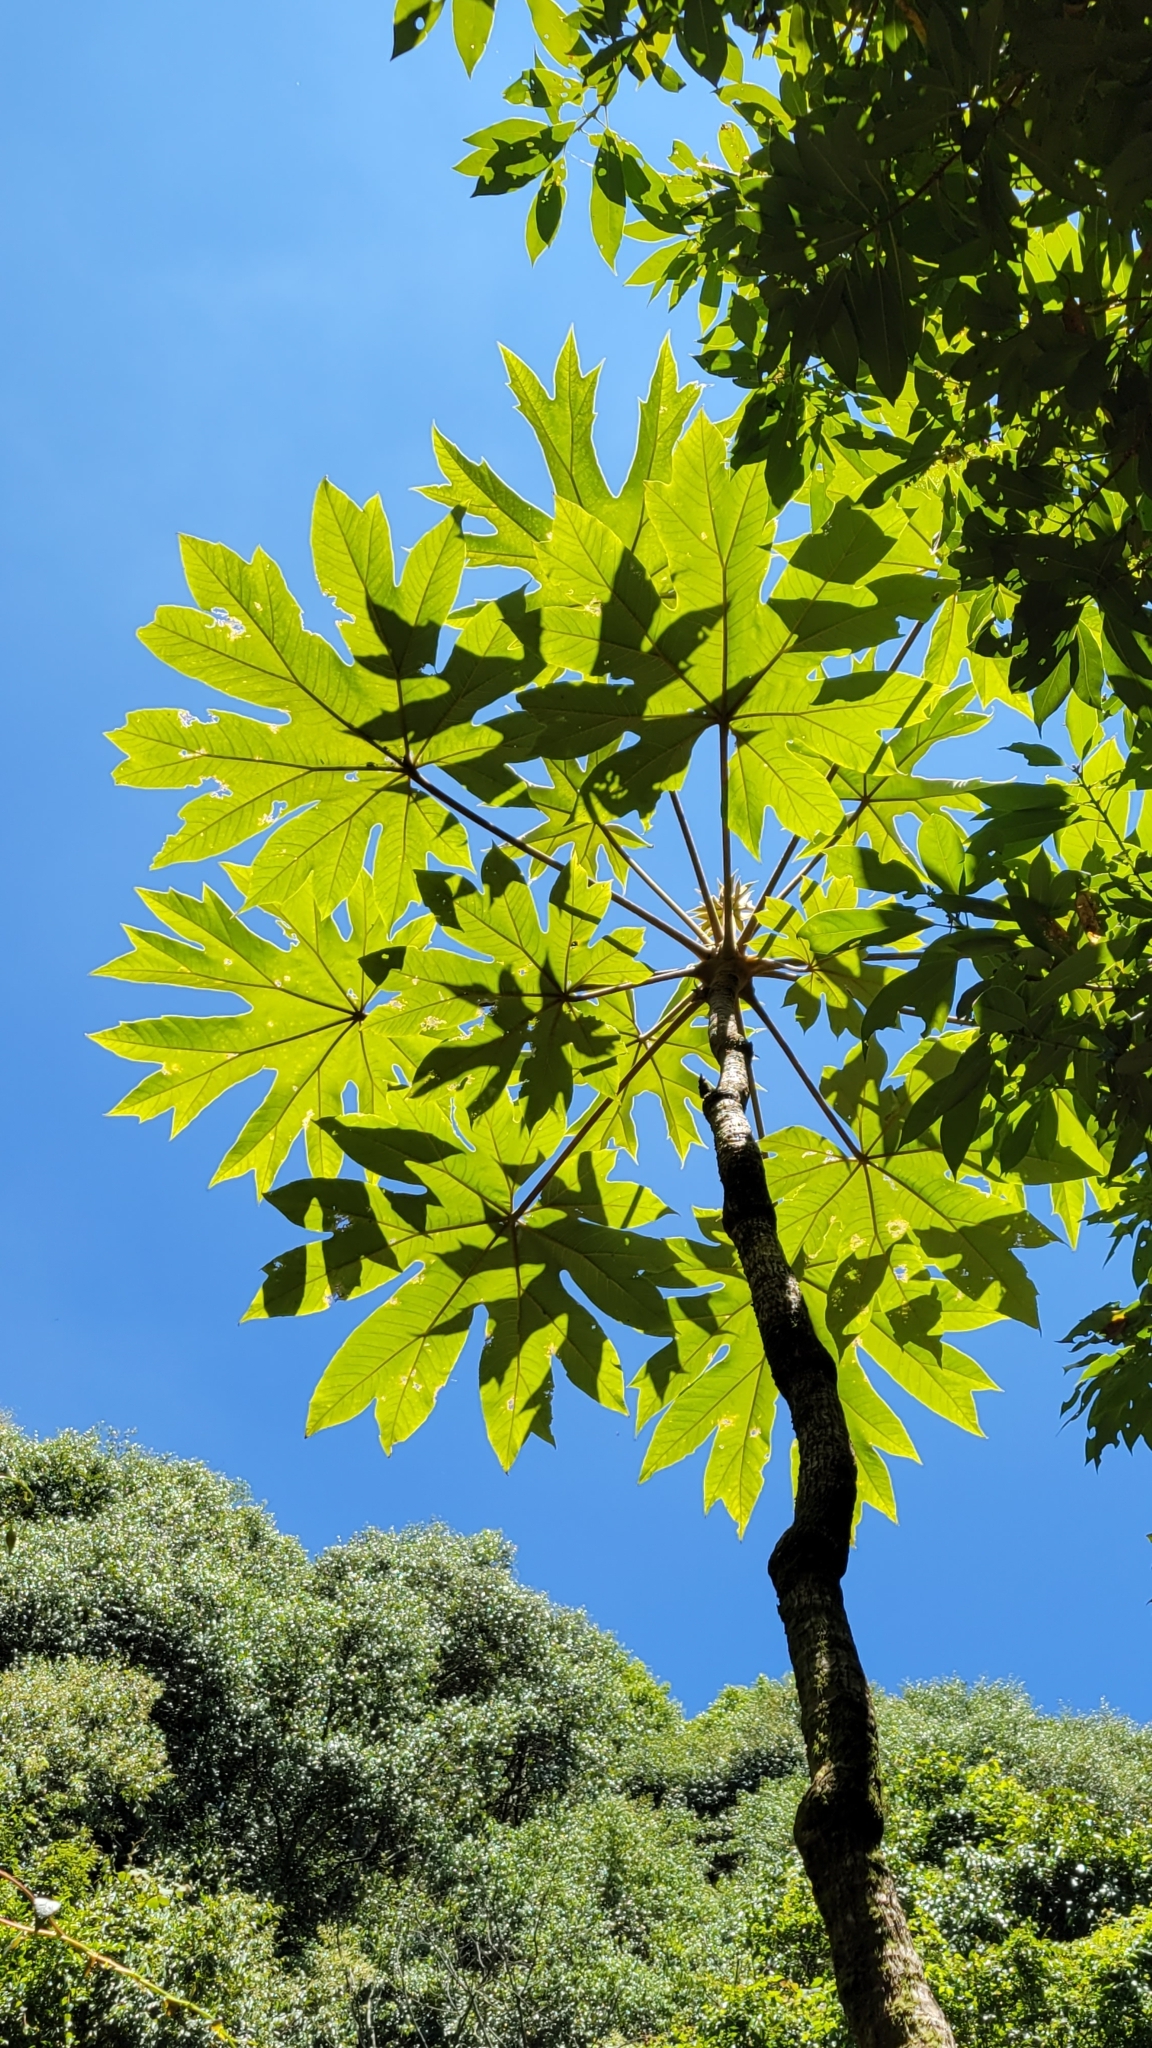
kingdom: Plantae
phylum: Tracheophyta
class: Magnoliopsida
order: Apiales
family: Araliaceae
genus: Tetrapanax
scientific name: Tetrapanax papyrifer
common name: Rice-paper plant
